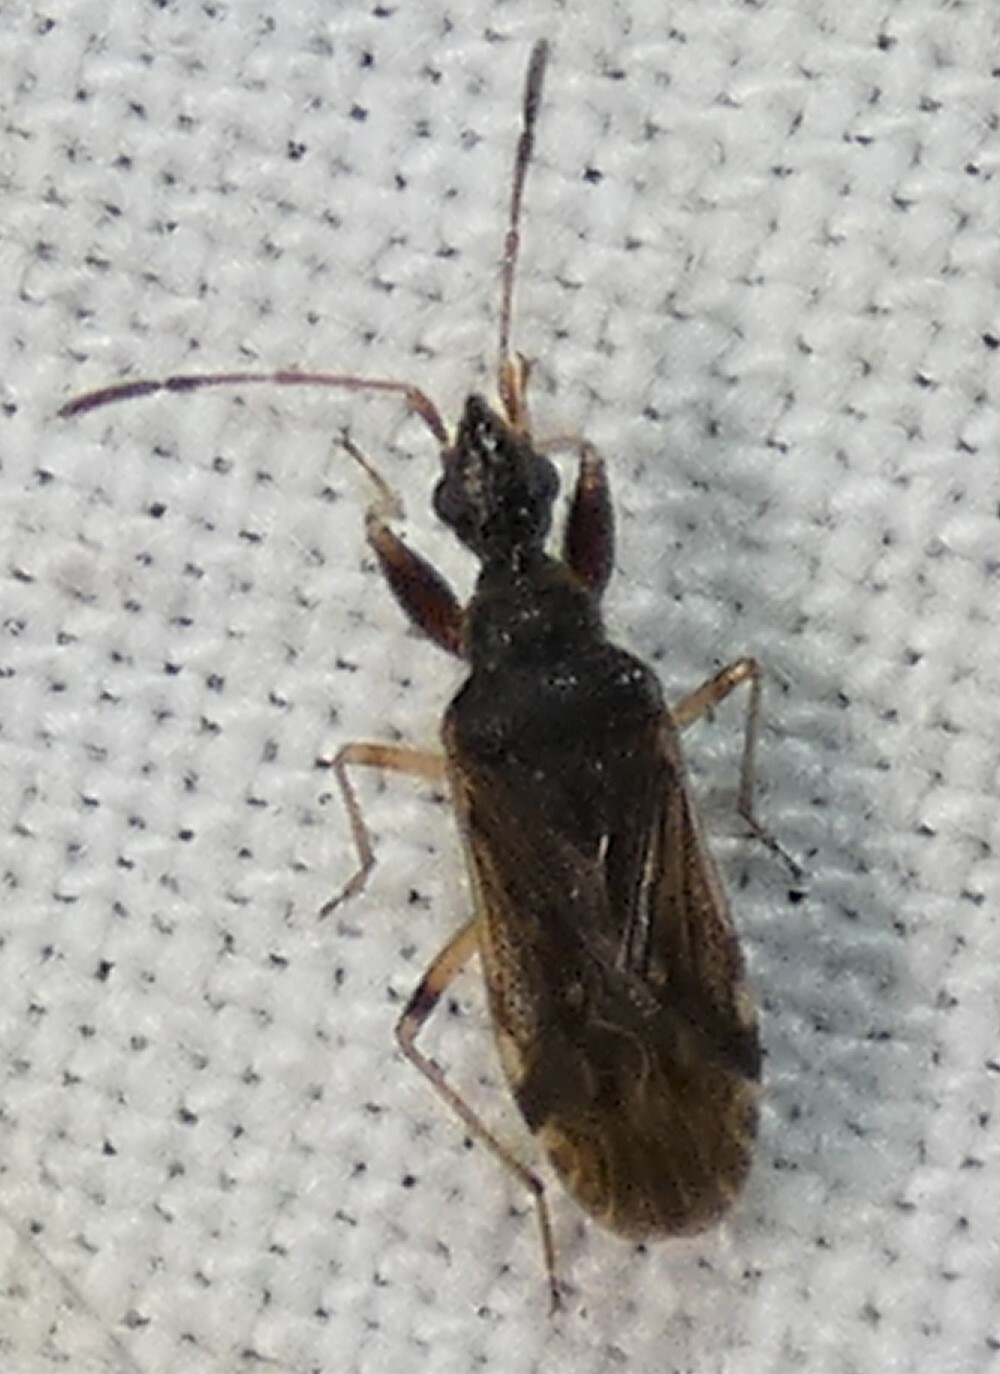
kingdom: Animalia
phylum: Arthropoda
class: Insecta
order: Hemiptera
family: Rhyparochromidae
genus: Heraeus
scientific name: Heraeus plebejus
